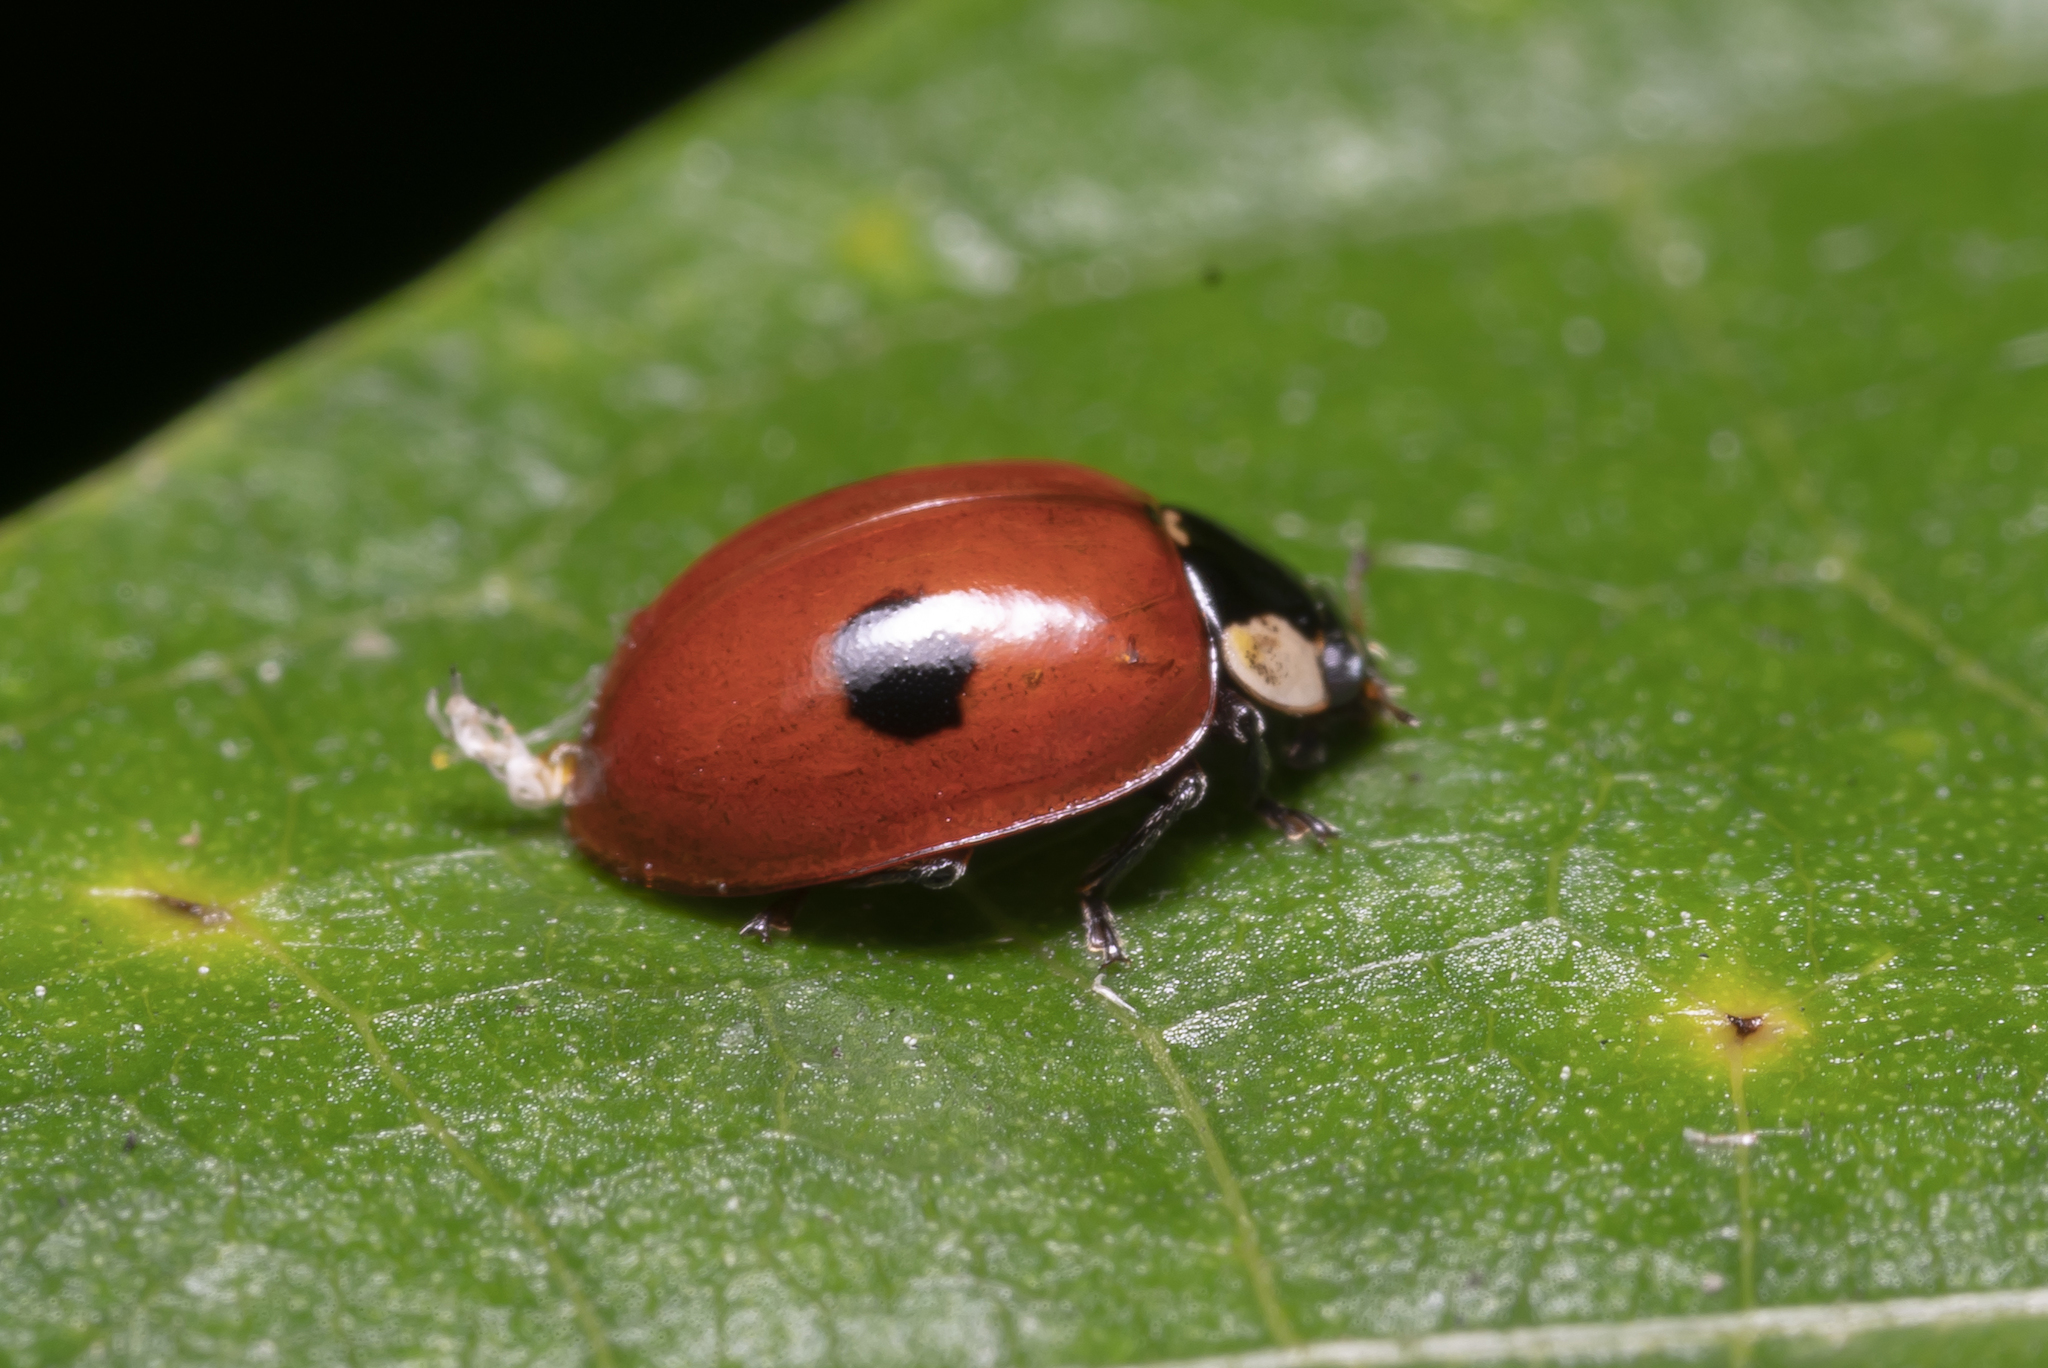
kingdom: Animalia
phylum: Arthropoda
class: Insecta
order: Coleoptera
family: Coccinellidae
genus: Adalia
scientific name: Adalia bipunctata
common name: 2-spot ladybird
